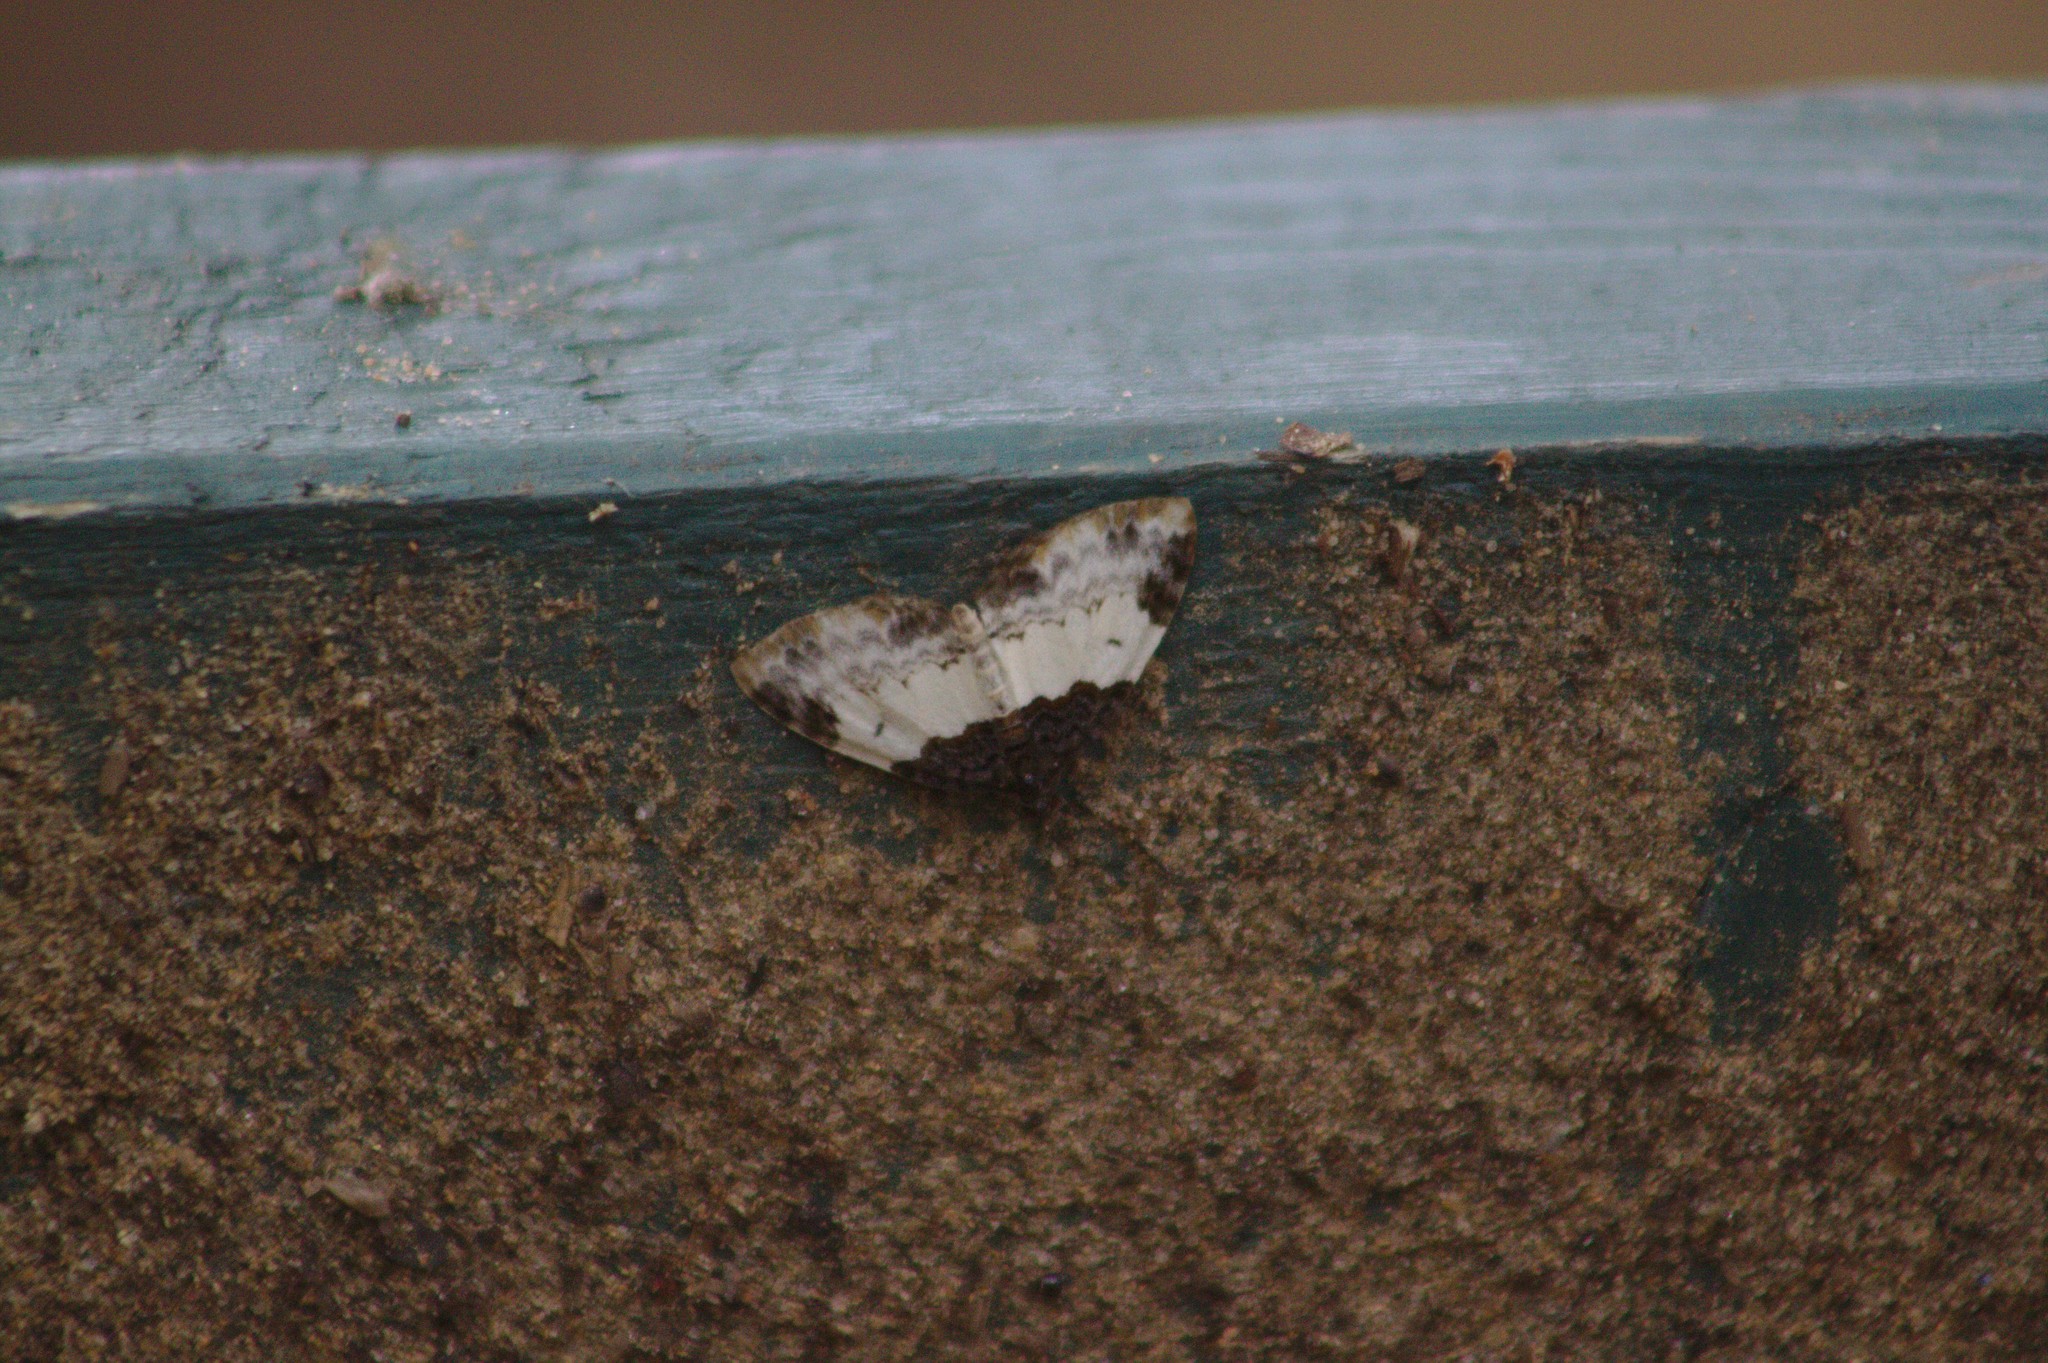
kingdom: Animalia
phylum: Arthropoda
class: Insecta
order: Lepidoptera
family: Geometridae
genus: Mesoleuca
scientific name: Mesoleuca ruficillata
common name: White-ribboned carpet moth
